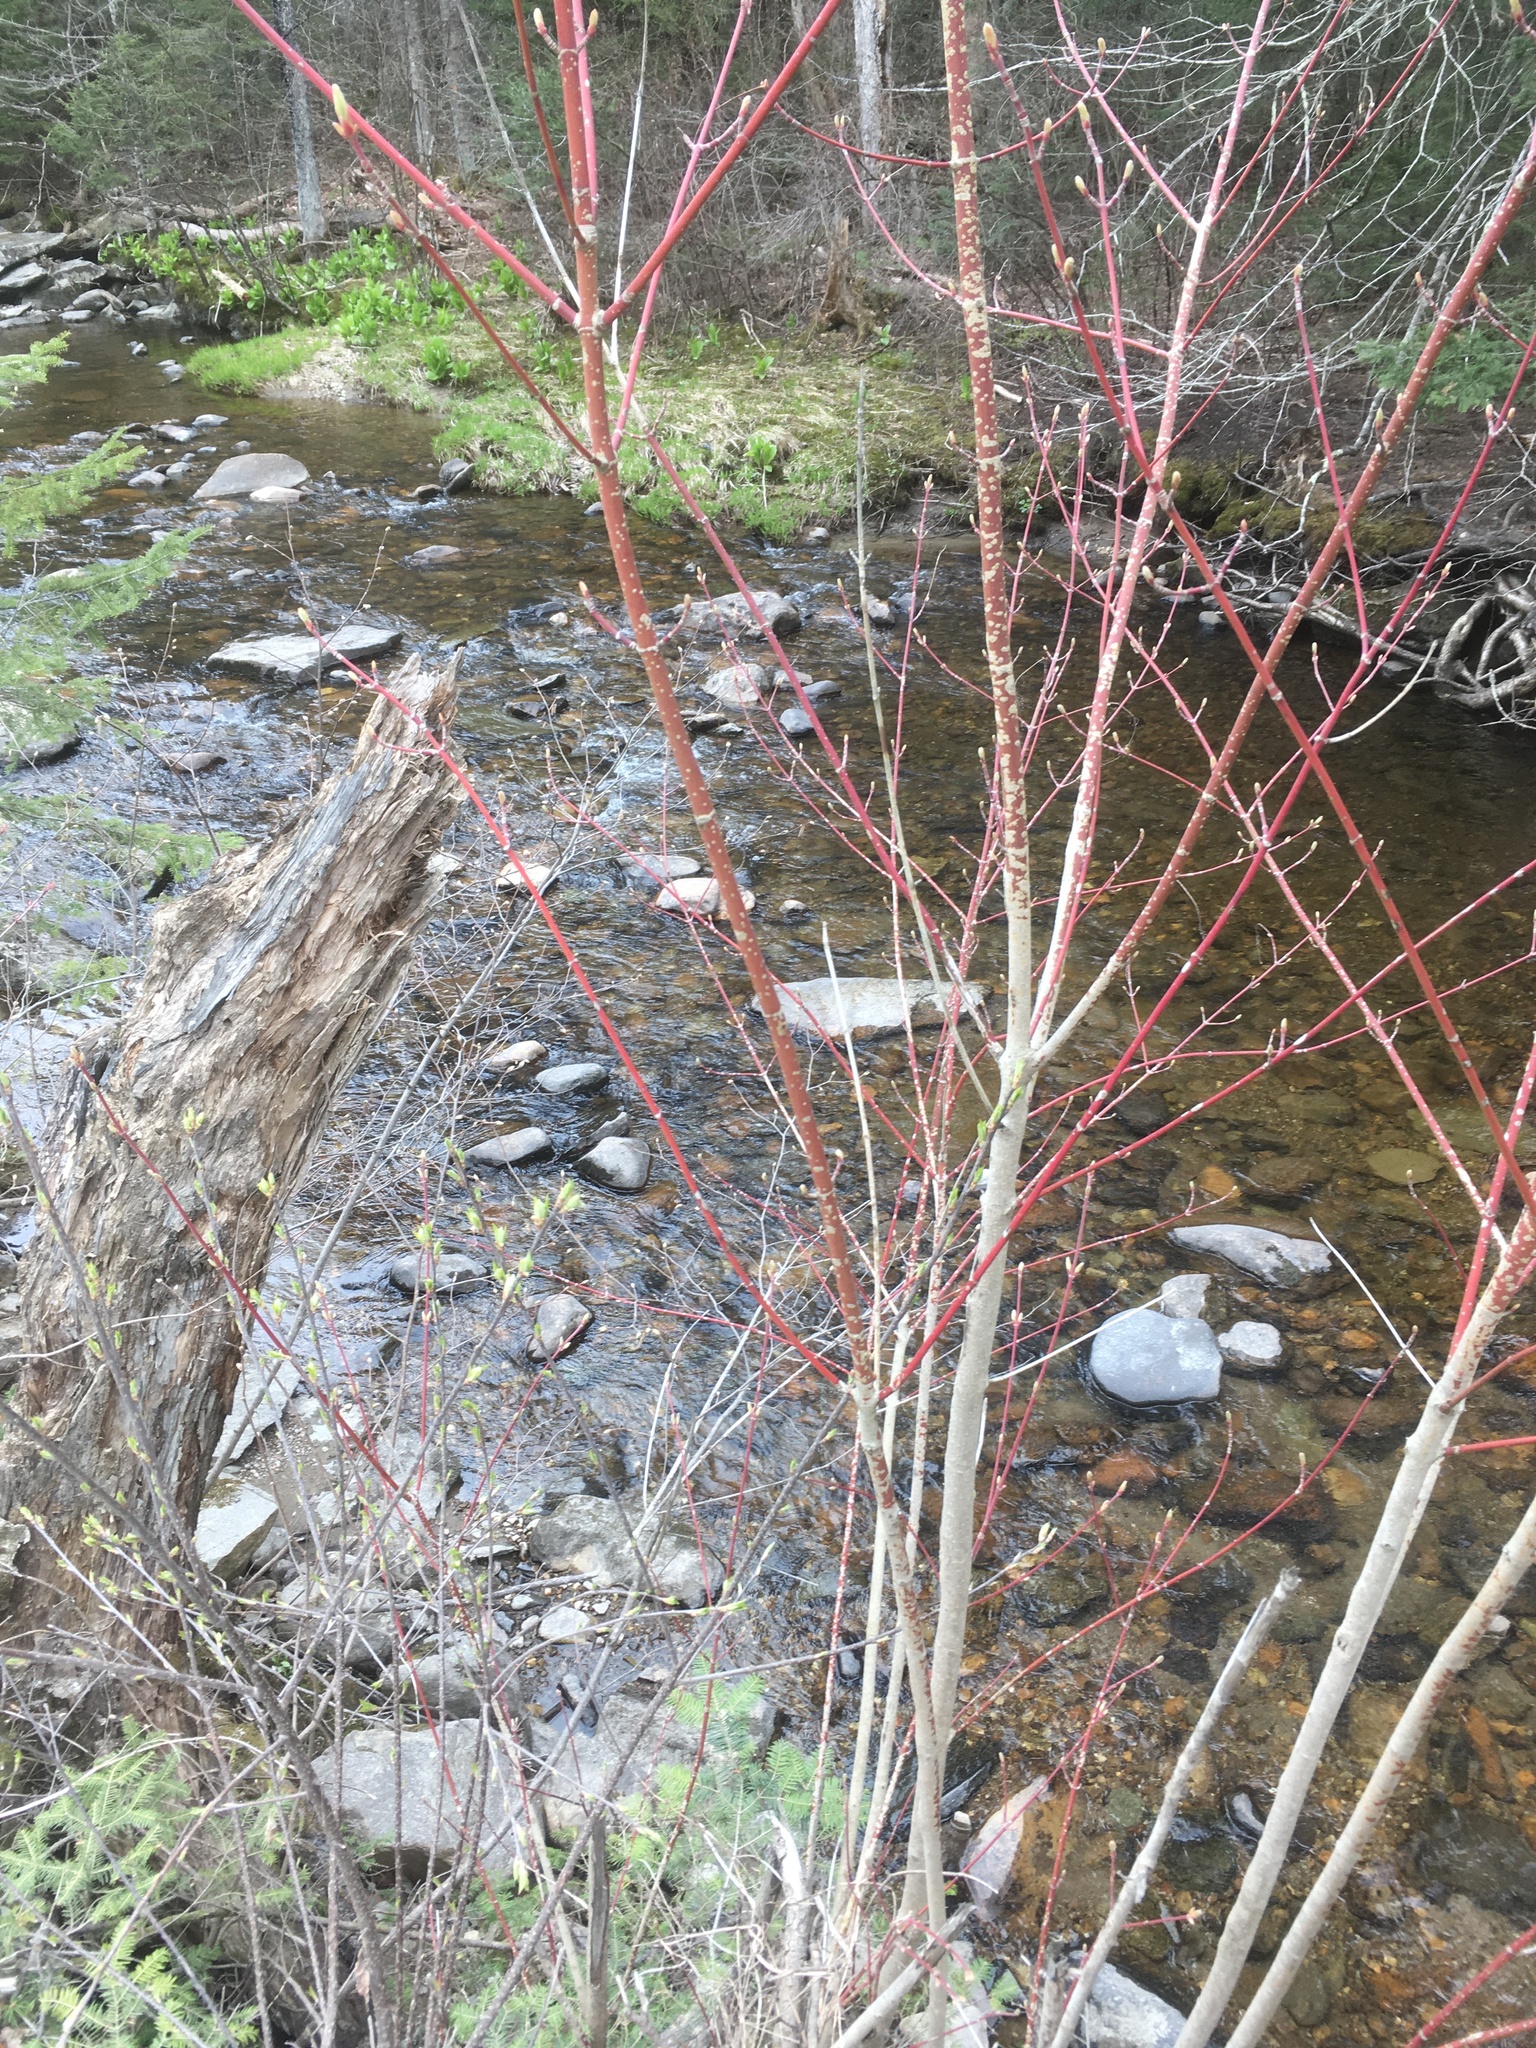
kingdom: Plantae
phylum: Tracheophyta
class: Magnoliopsida
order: Sapindales
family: Sapindaceae
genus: Acer
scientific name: Acer spicatum
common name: Mountain maple
